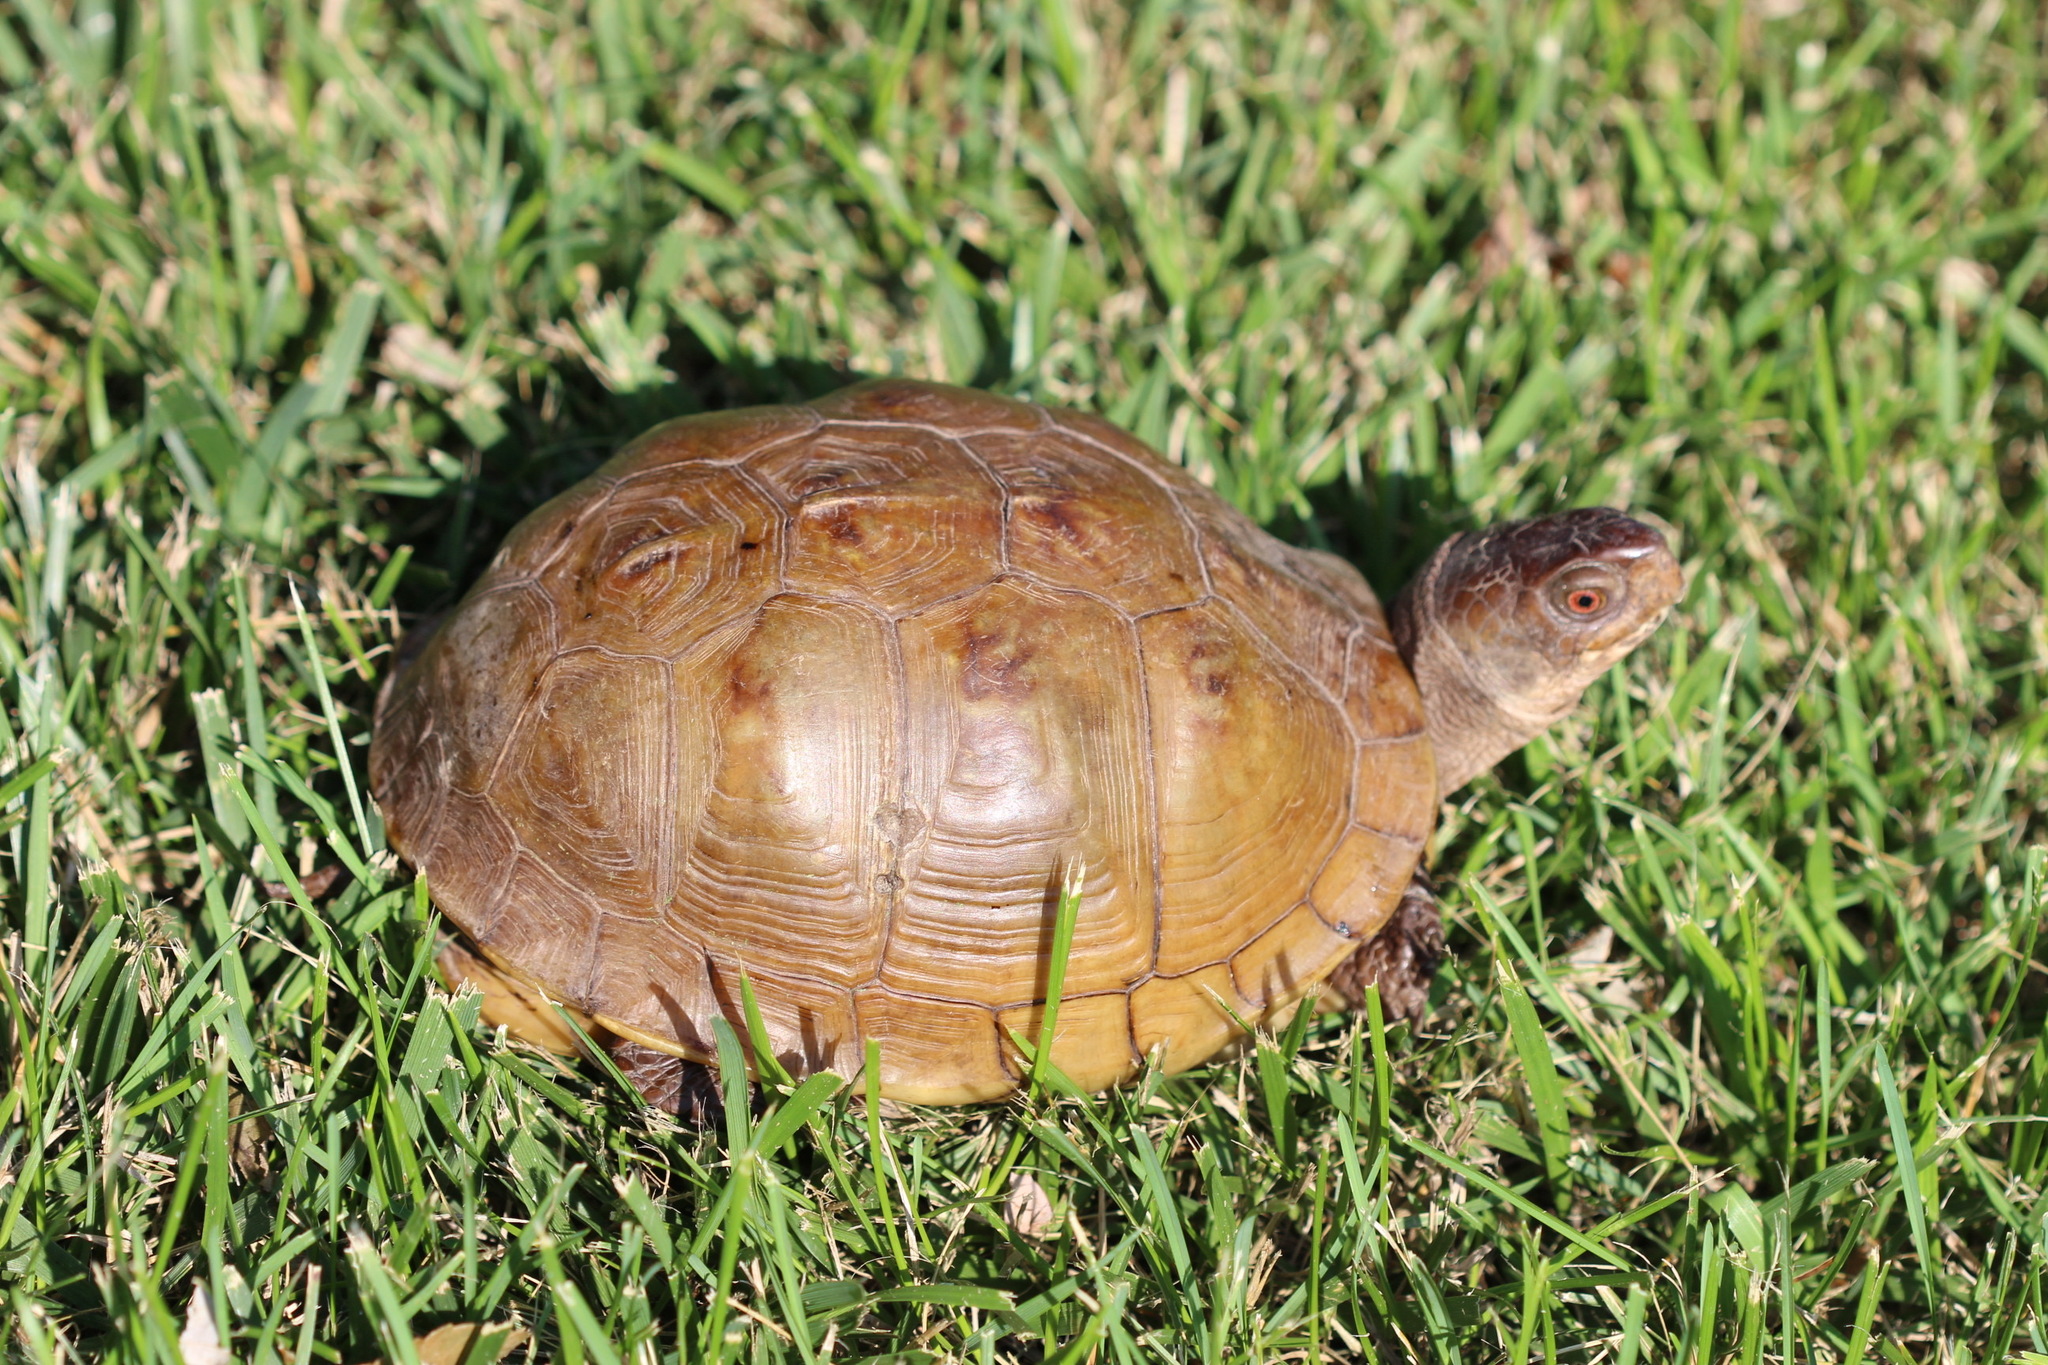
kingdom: Animalia
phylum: Chordata
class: Testudines
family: Emydidae
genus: Terrapene
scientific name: Terrapene carolina
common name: Common box turtle
